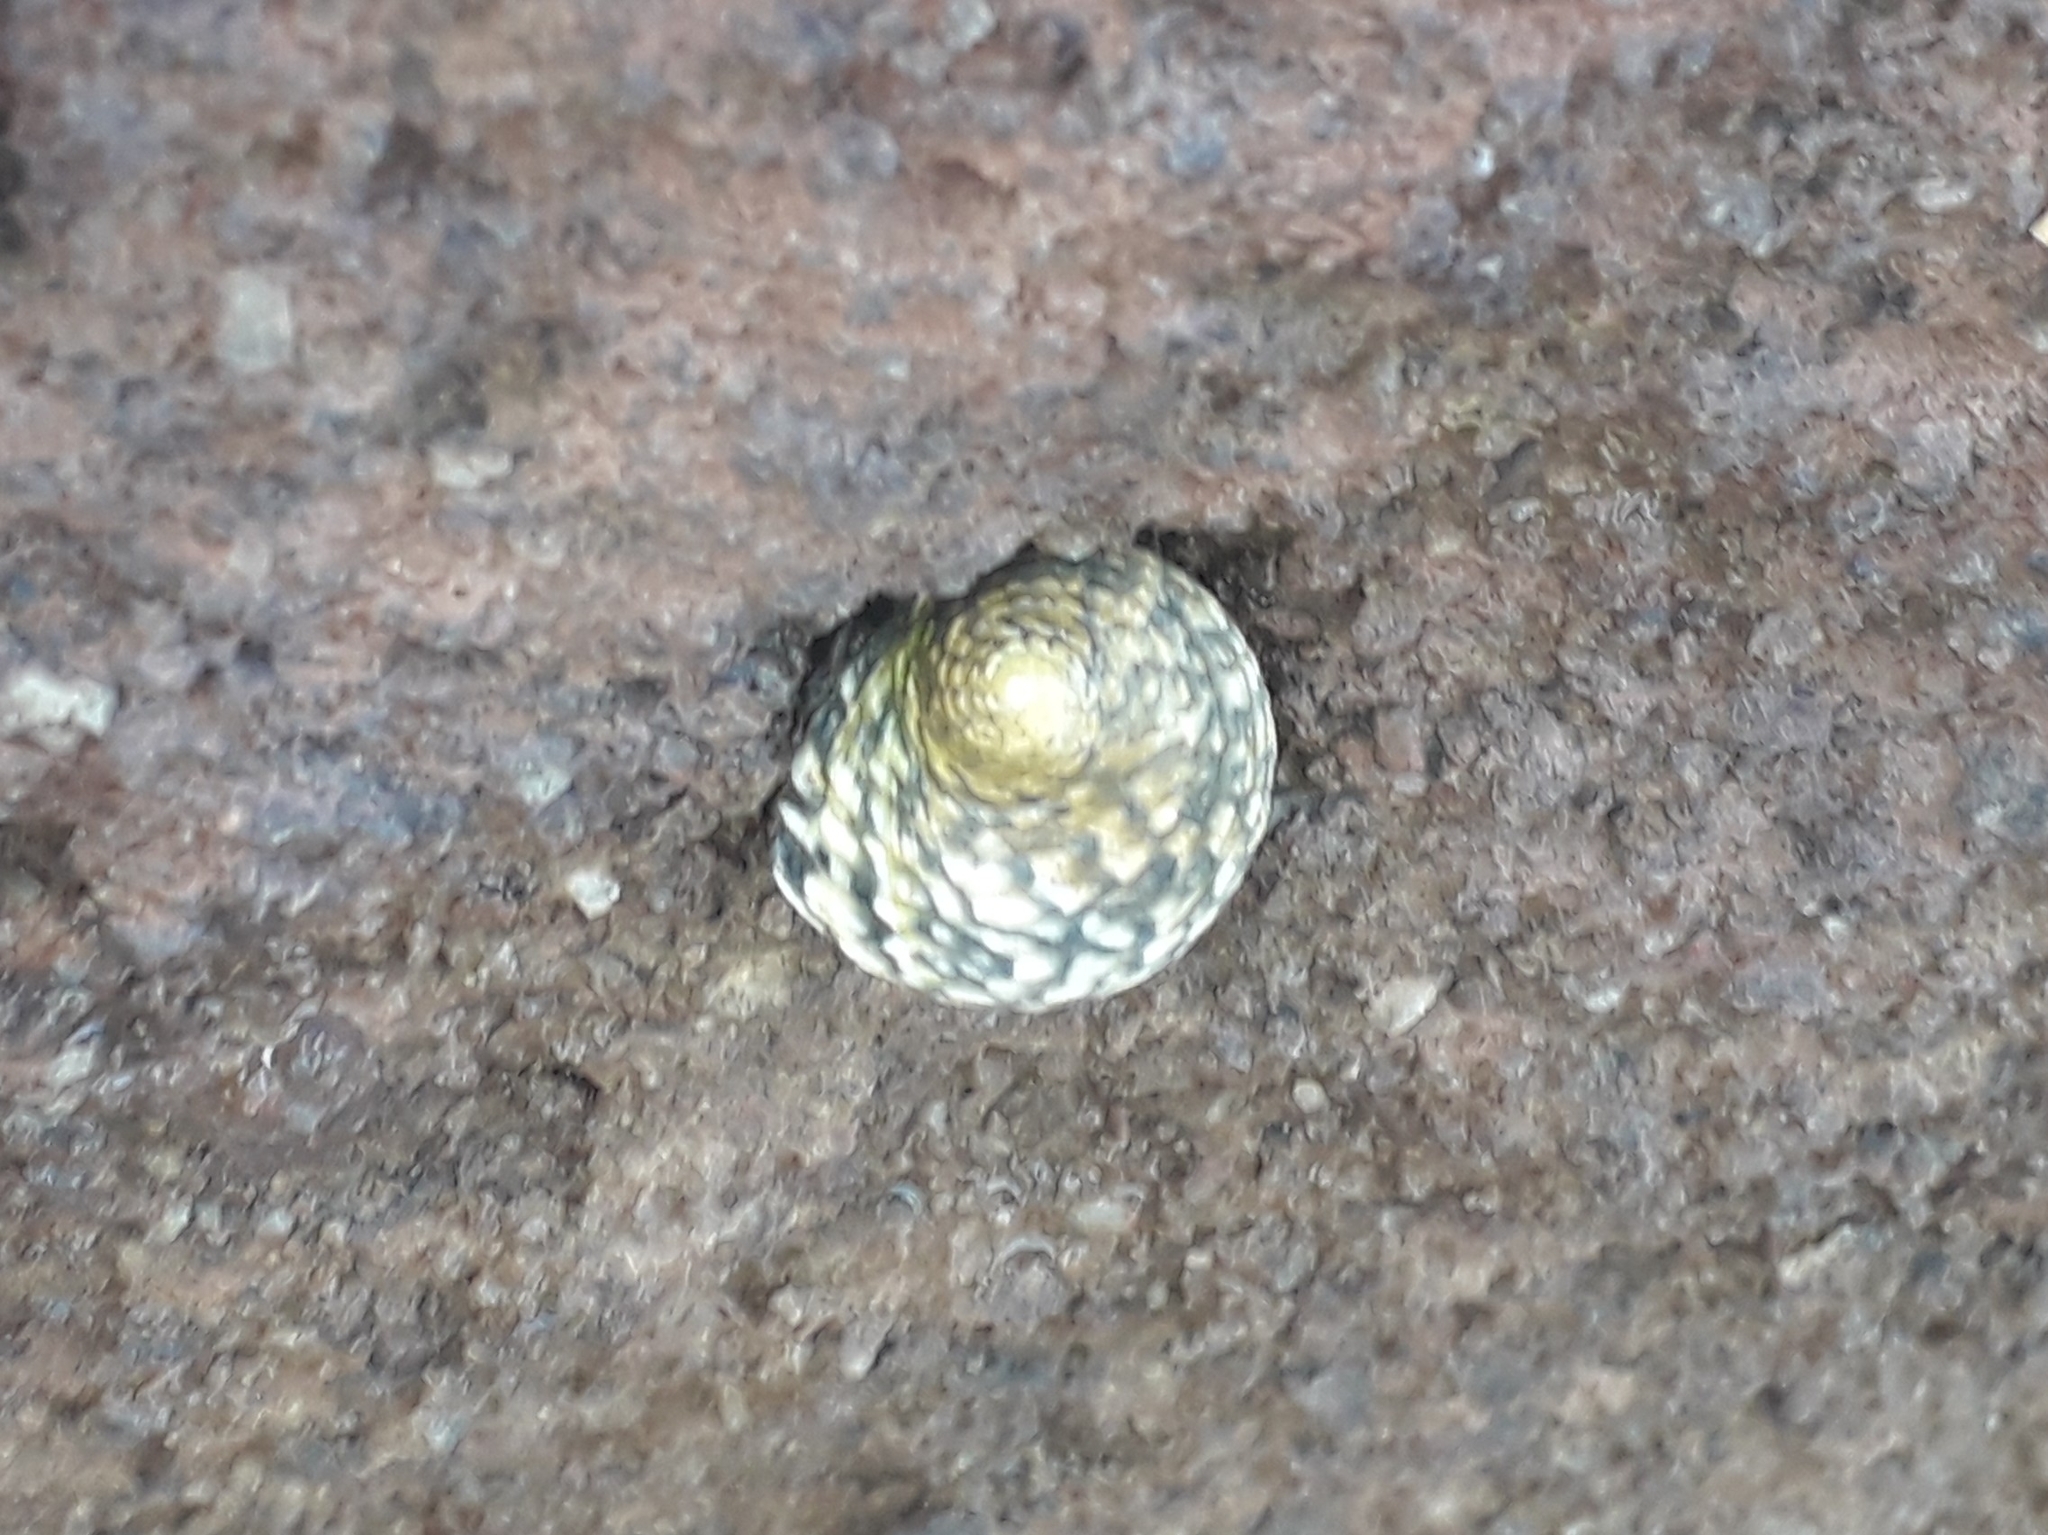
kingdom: Animalia
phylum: Mollusca
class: Gastropoda
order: Cycloneritida
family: Neritidae
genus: Nerita
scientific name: Nerita tessellata
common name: Checkered nerite
